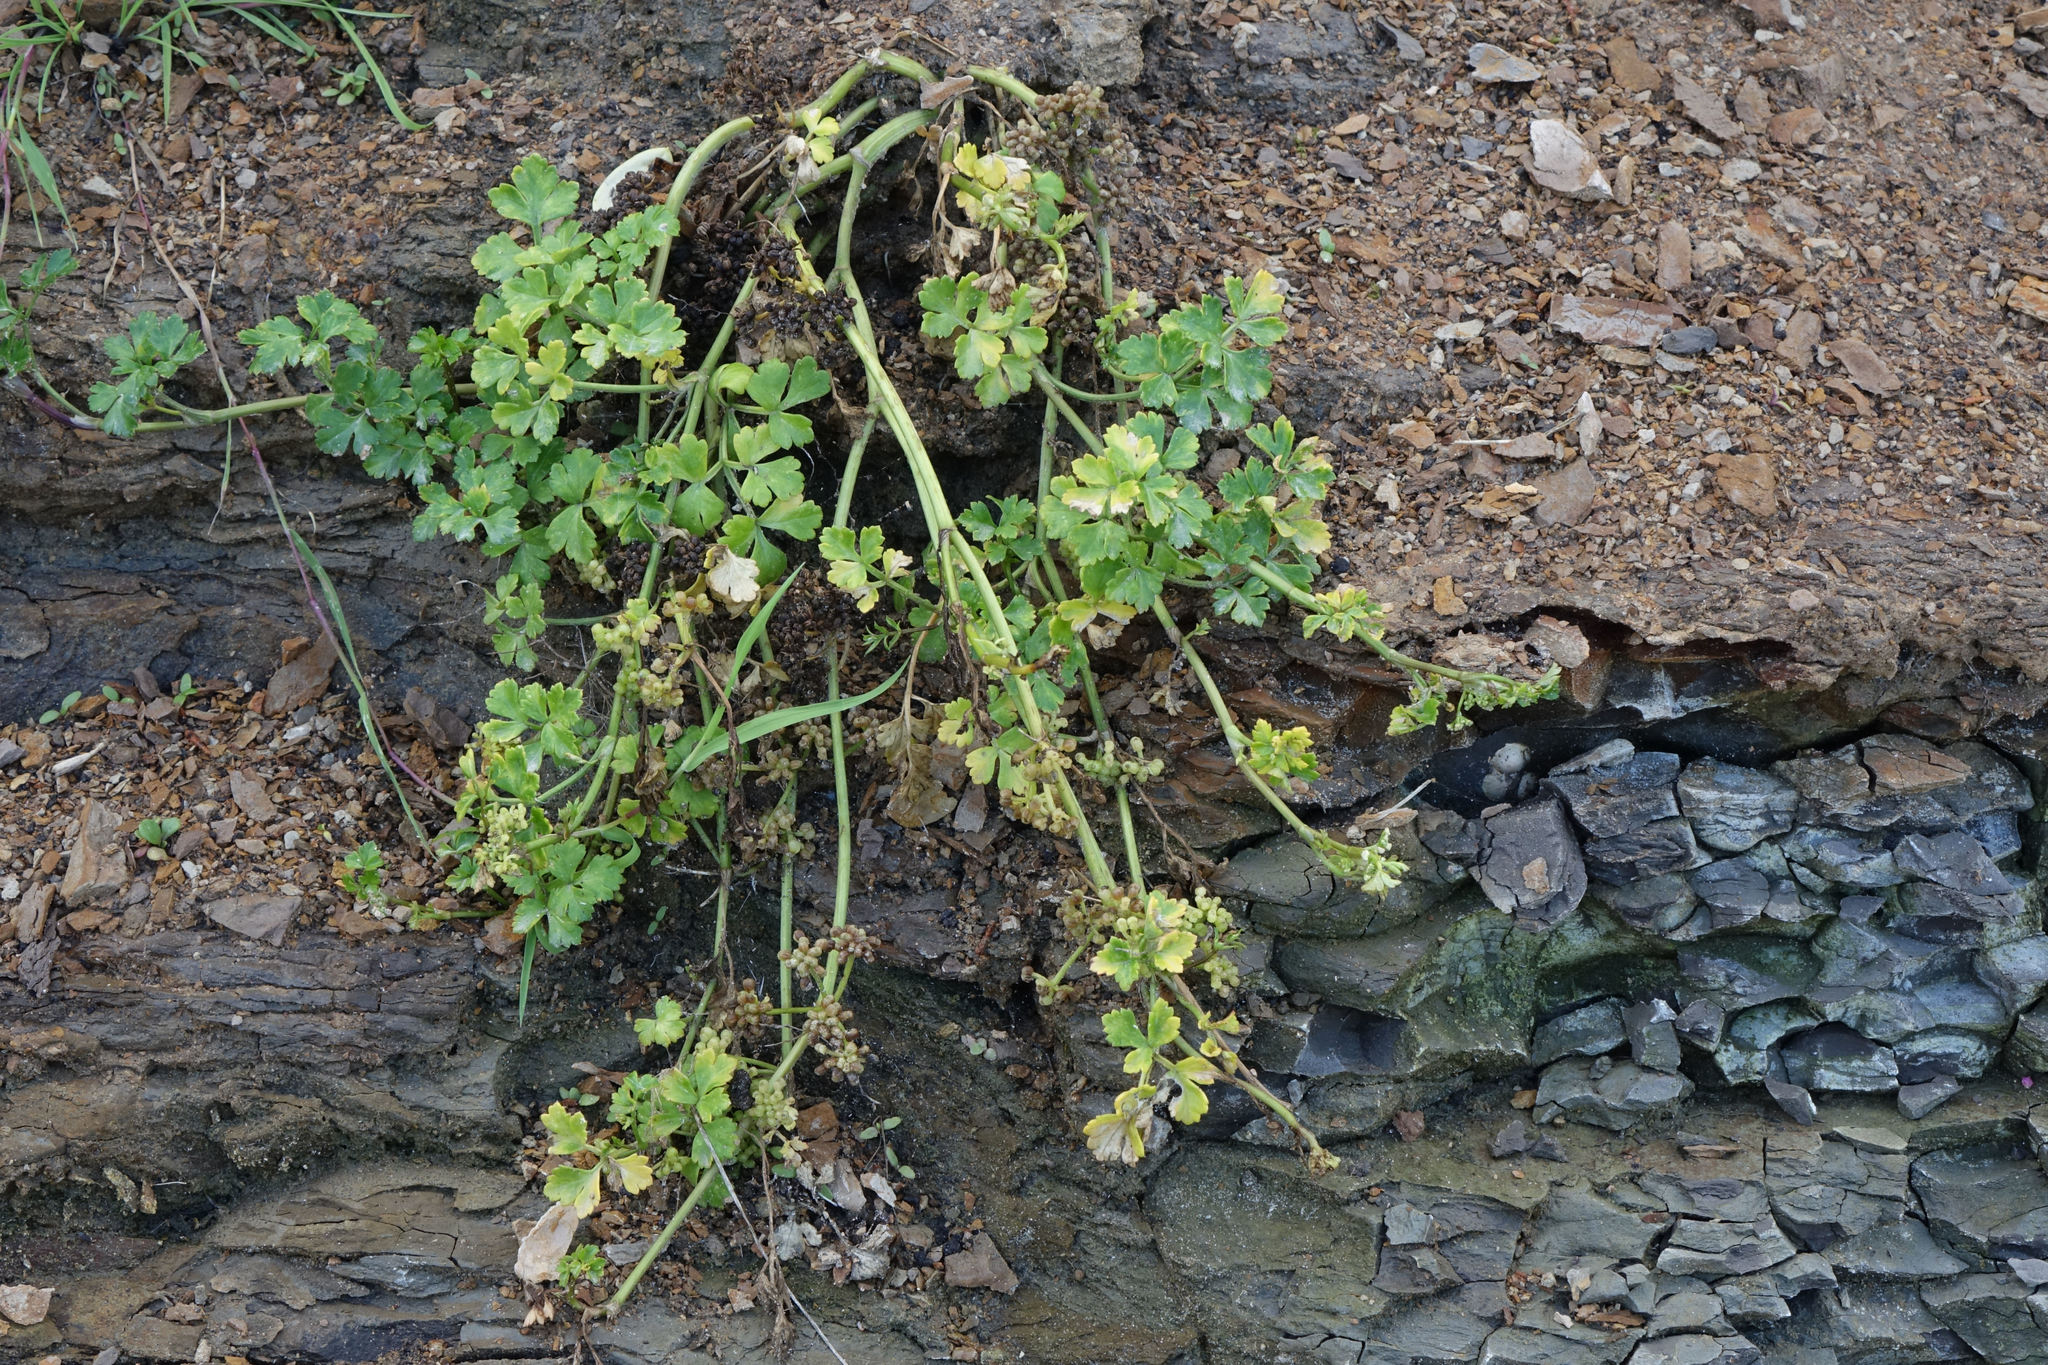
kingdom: Plantae
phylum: Tracheophyta
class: Magnoliopsida
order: Apiales
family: Apiaceae
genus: Apium
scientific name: Apium prostratum
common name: Prostrate marshwort
